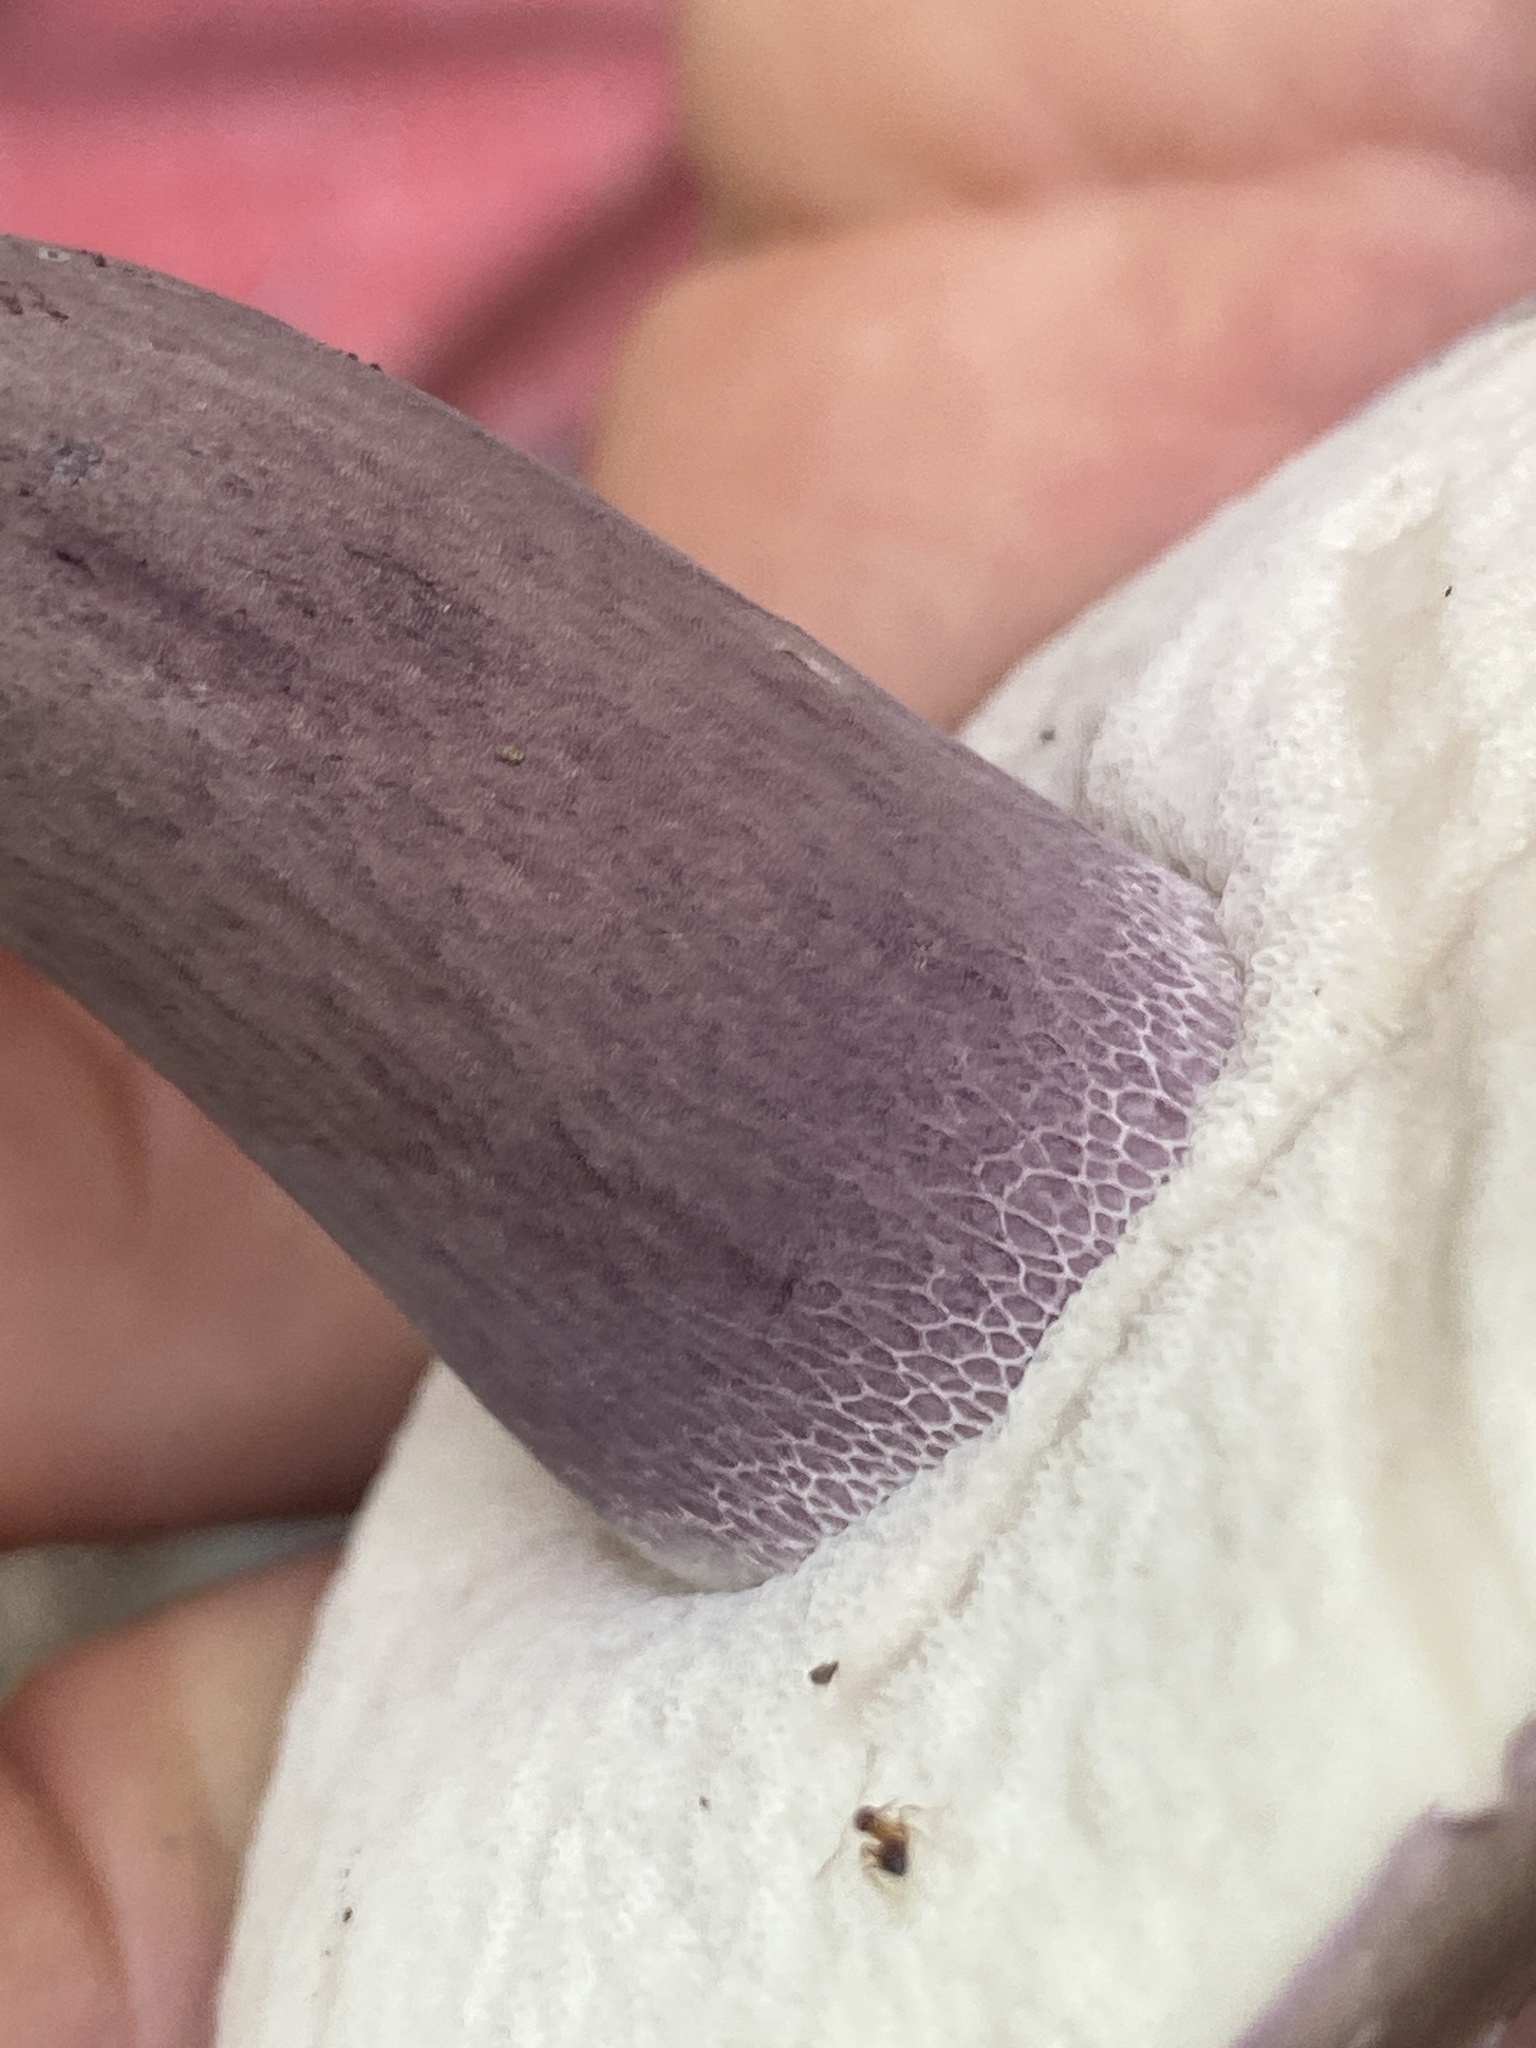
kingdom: Fungi
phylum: Basidiomycota
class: Agaricomycetes
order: Boletales
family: Boletaceae
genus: Tylopilus
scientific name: Tylopilus plumbeoviolaceus
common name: Violet gray bolete
